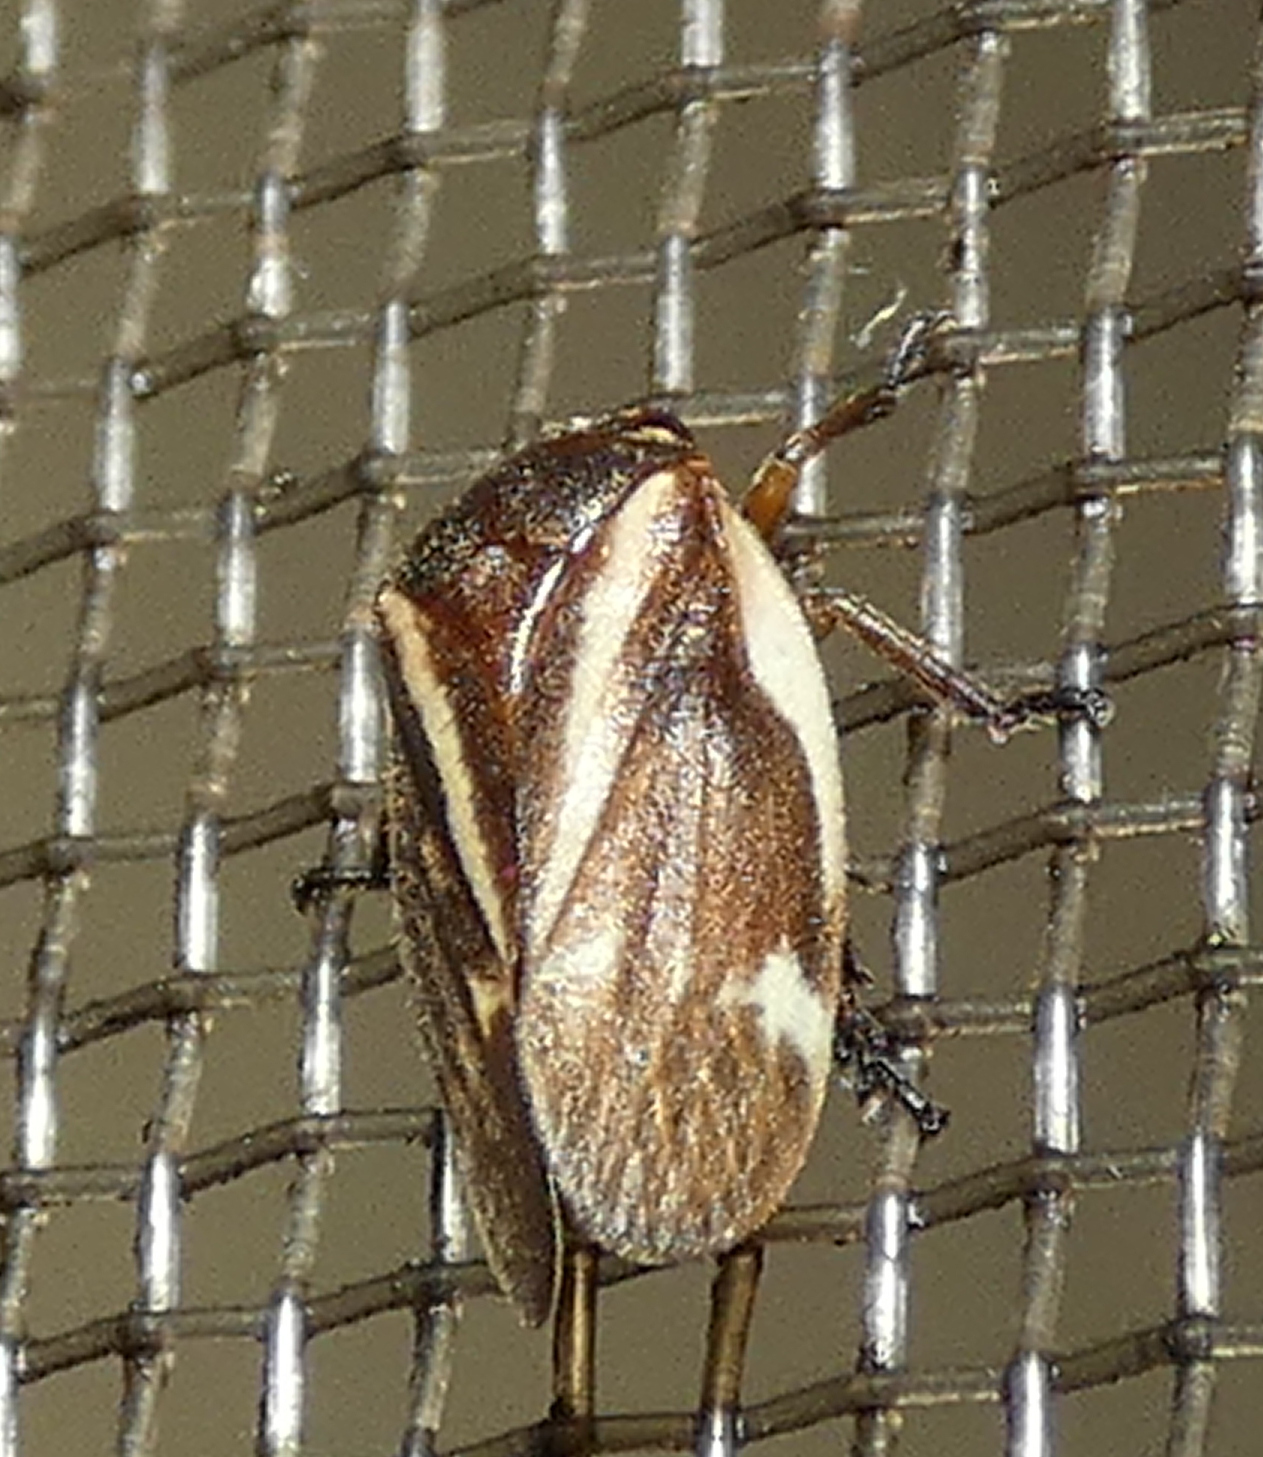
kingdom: Animalia
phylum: Arthropoda
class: Insecta
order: Hemiptera
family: Cercopidae
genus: Notozulia
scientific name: Notozulia entreriana
